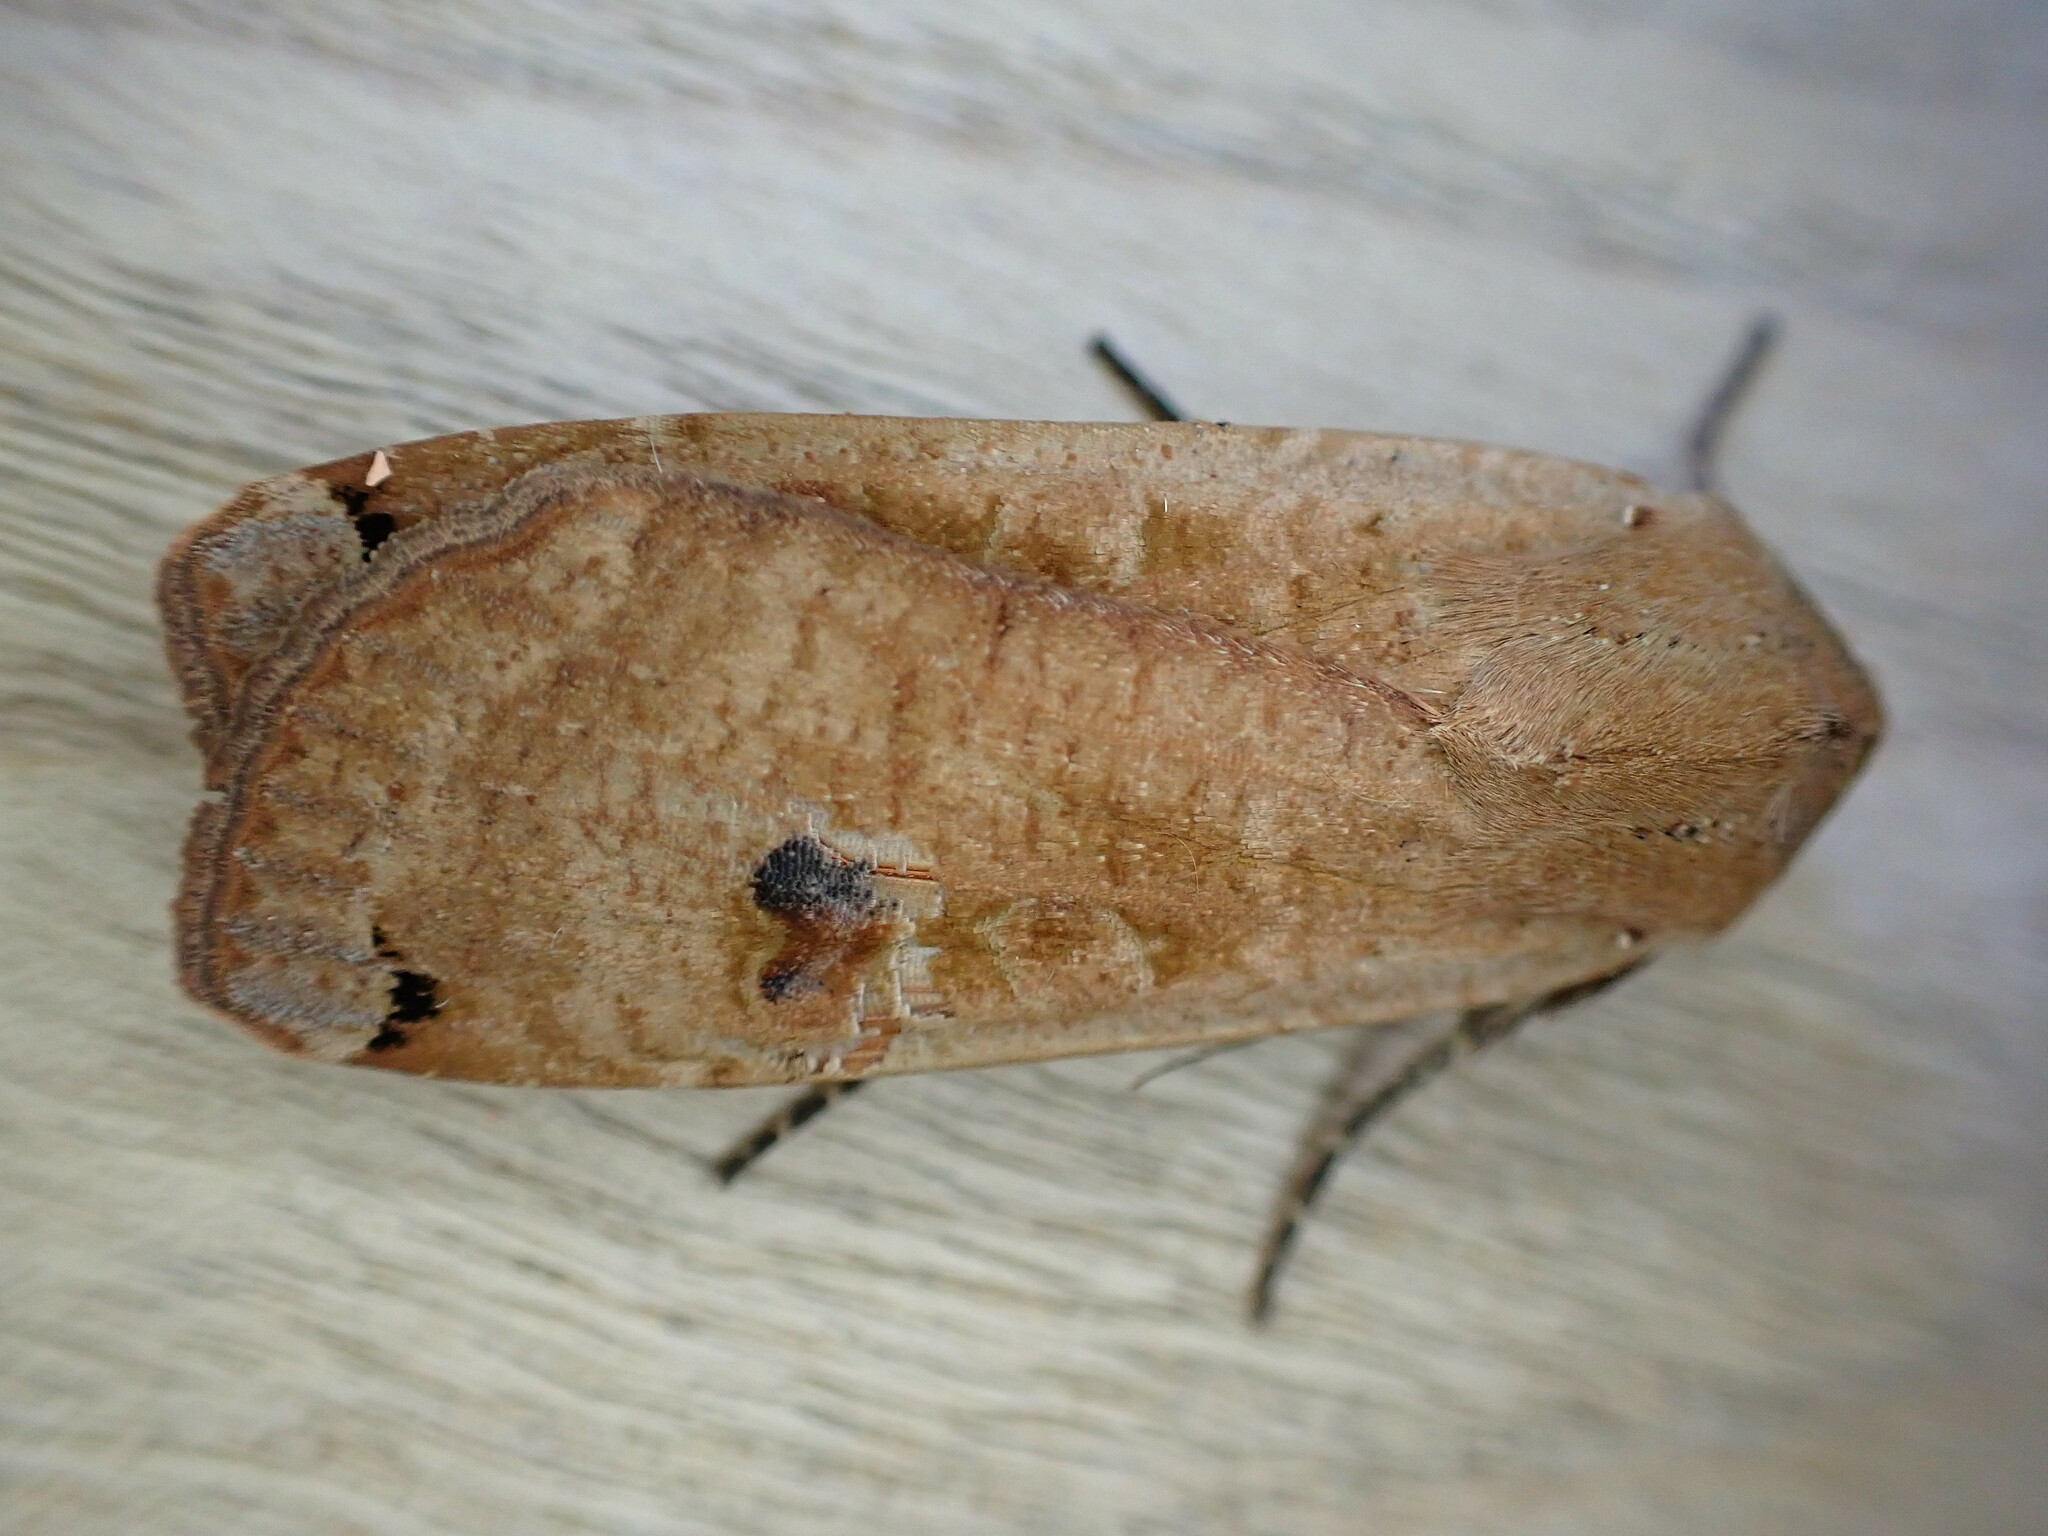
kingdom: Animalia
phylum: Arthropoda
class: Insecta
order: Lepidoptera
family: Noctuidae
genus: Noctua
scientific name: Noctua pronuba
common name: Large yellow underwing
